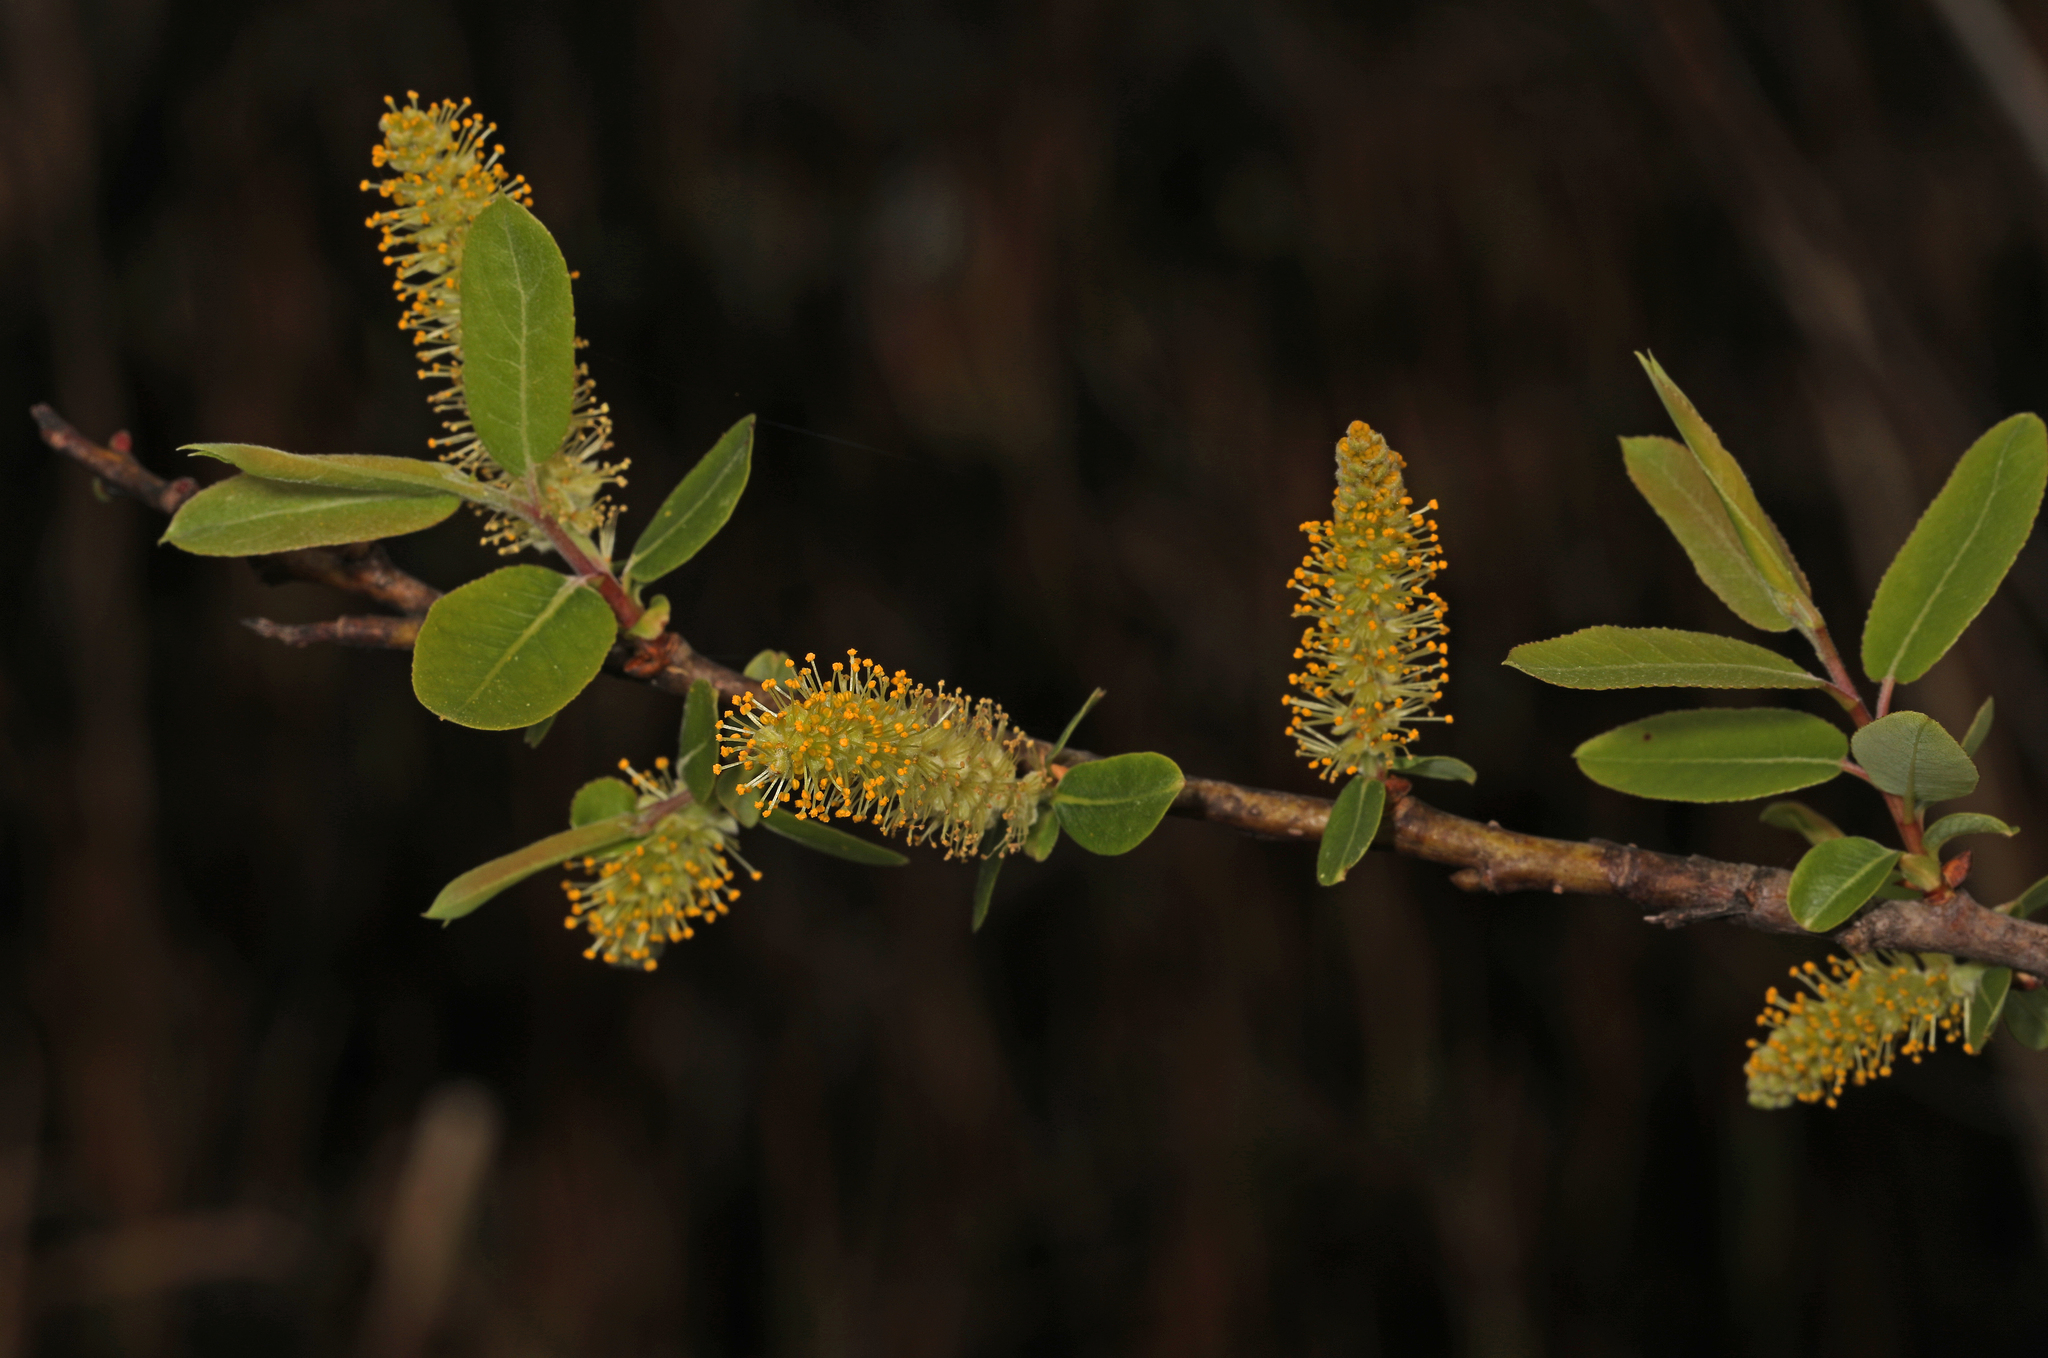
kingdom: Plantae
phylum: Tracheophyta
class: Magnoliopsida
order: Malpighiales
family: Salicaceae
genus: Salix
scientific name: Salix caroliniana
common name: Carolina willow
